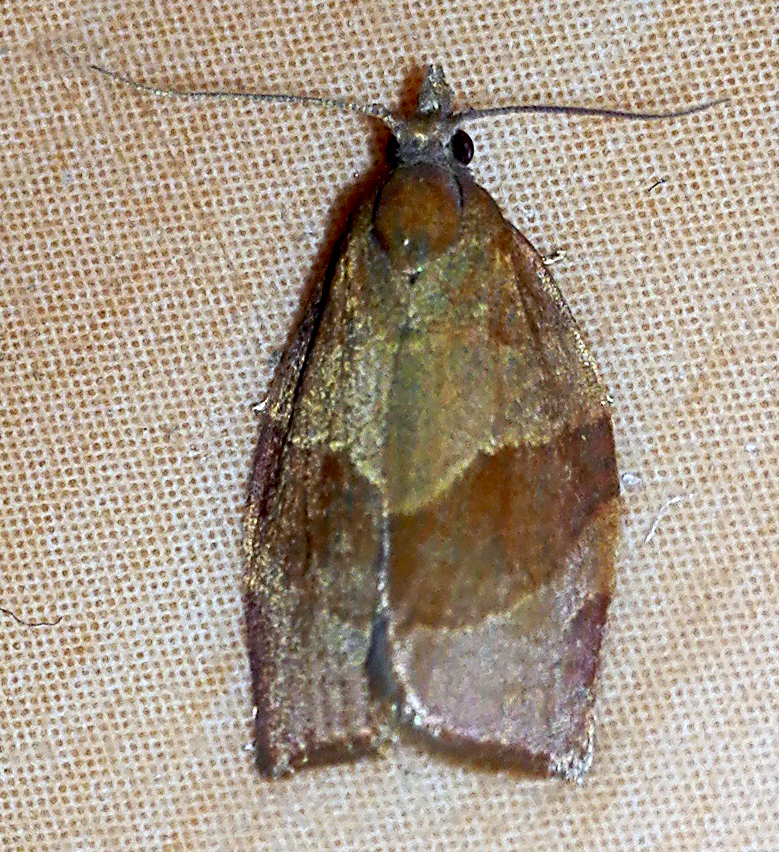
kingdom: Animalia
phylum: Arthropoda
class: Insecta
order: Lepidoptera
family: Tortricidae
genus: Pandemis
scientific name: Pandemis heparana
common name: Dark fruit-tree tortrix
